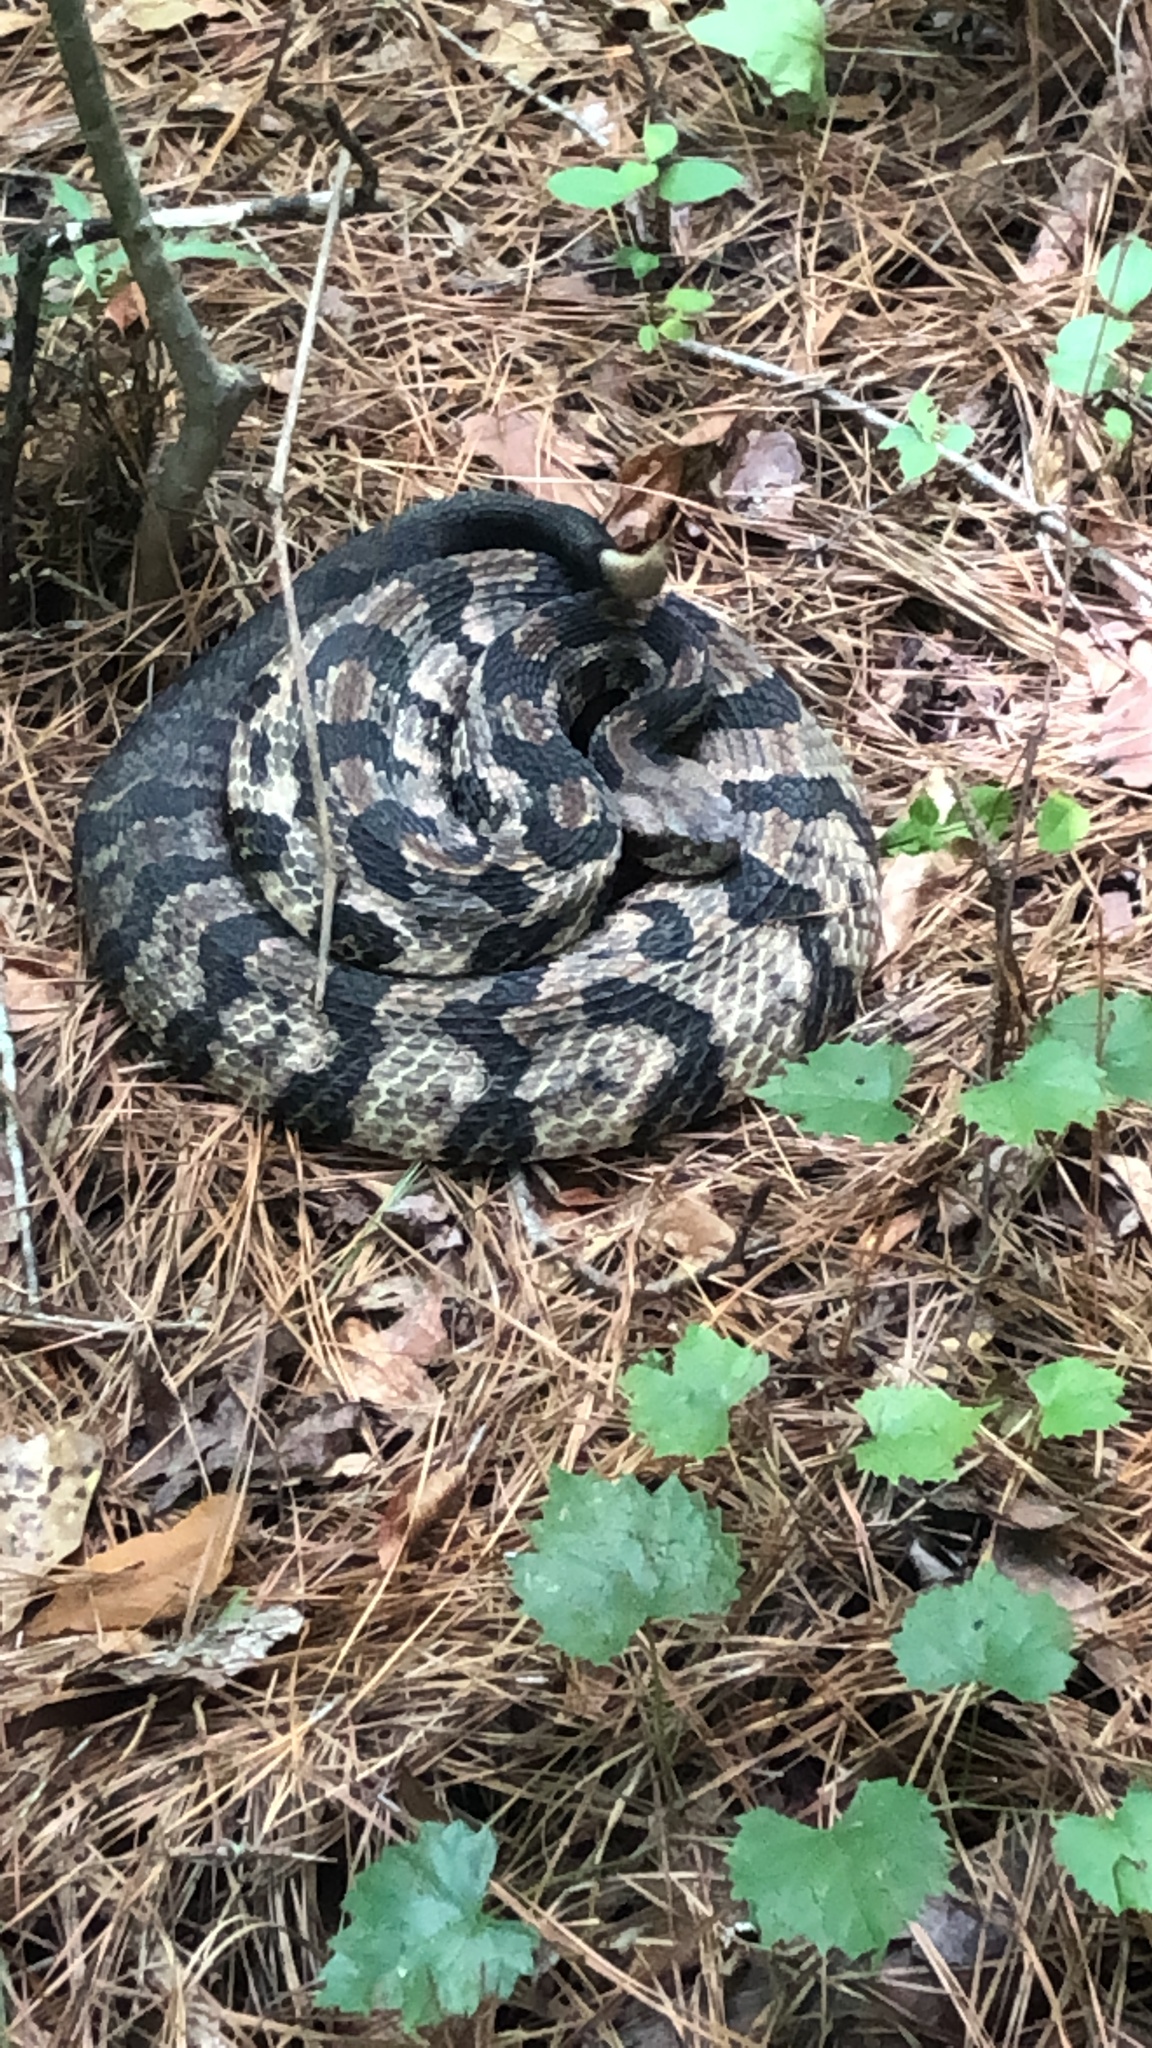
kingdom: Animalia
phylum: Chordata
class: Squamata
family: Viperidae
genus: Crotalus
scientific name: Crotalus horridus
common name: Timber rattlesnake
